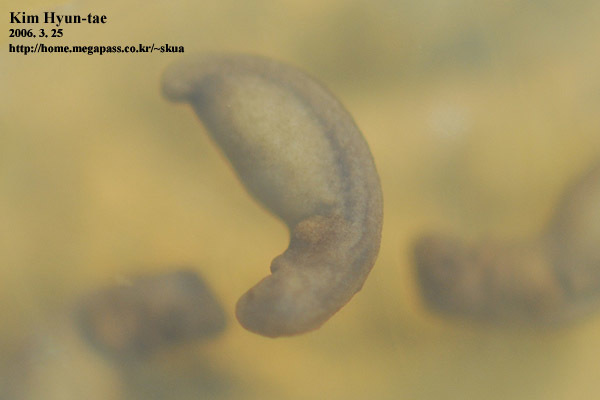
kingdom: Animalia
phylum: Chordata
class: Amphibia
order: Caudata
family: Hynobiidae
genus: Hynobius
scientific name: Hynobius leechii
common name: Gensan salamander
